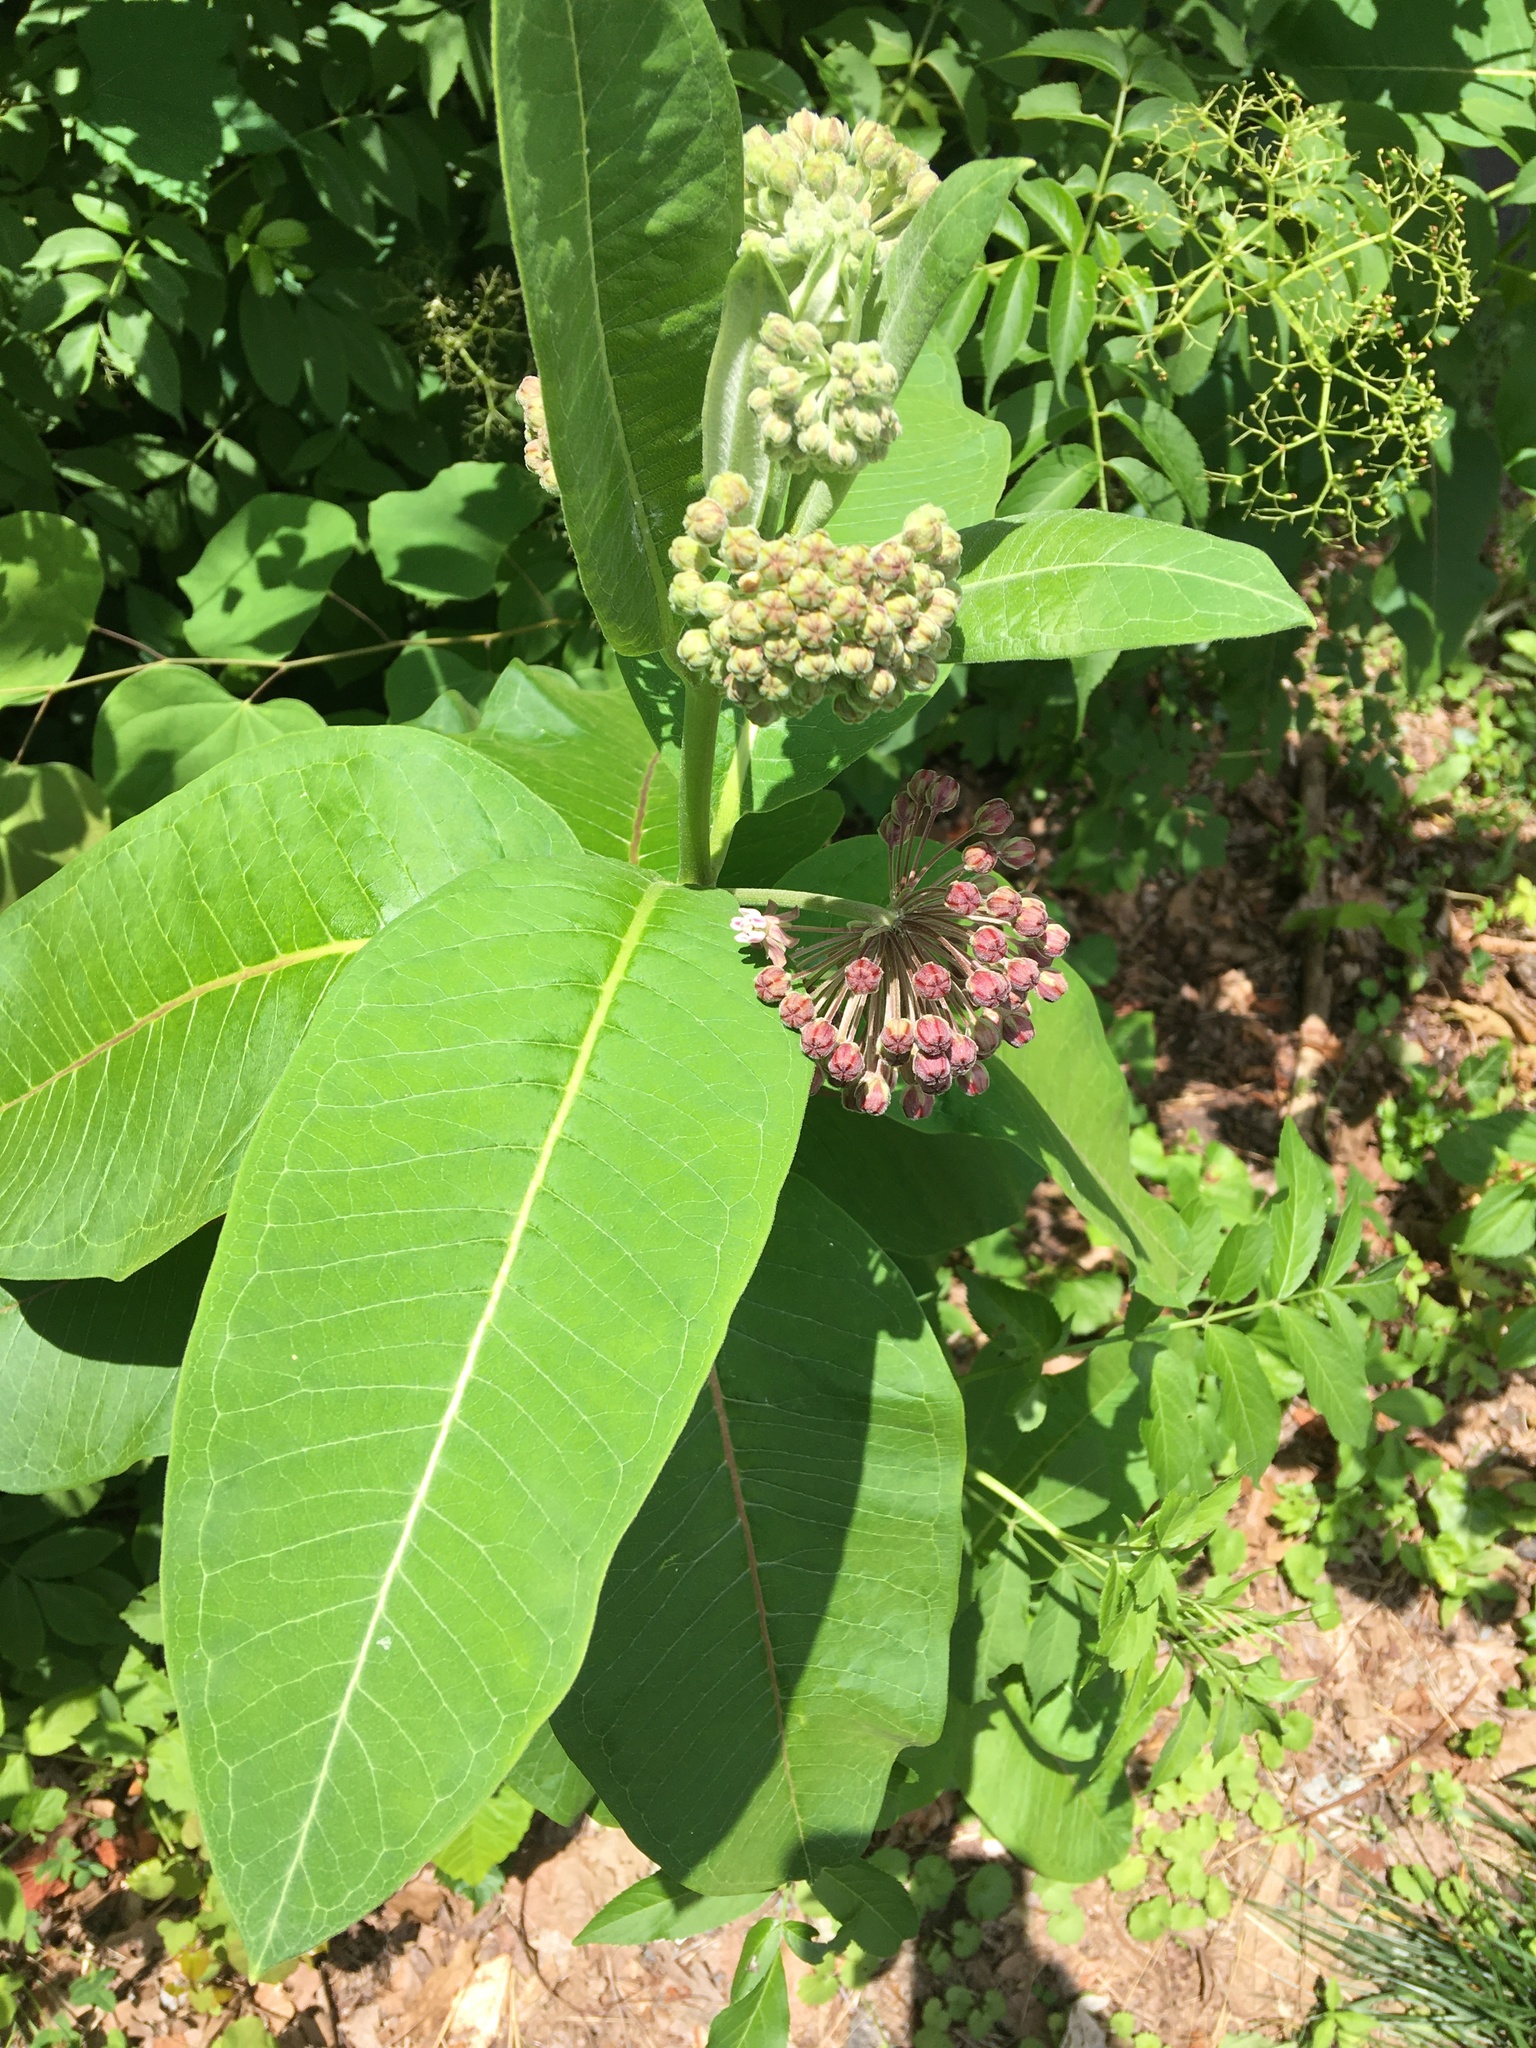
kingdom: Plantae
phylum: Tracheophyta
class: Magnoliopsida
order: Gentianales
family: Apocynaceae
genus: Asclepias
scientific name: Asclepias syriaca
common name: Common milkweed
